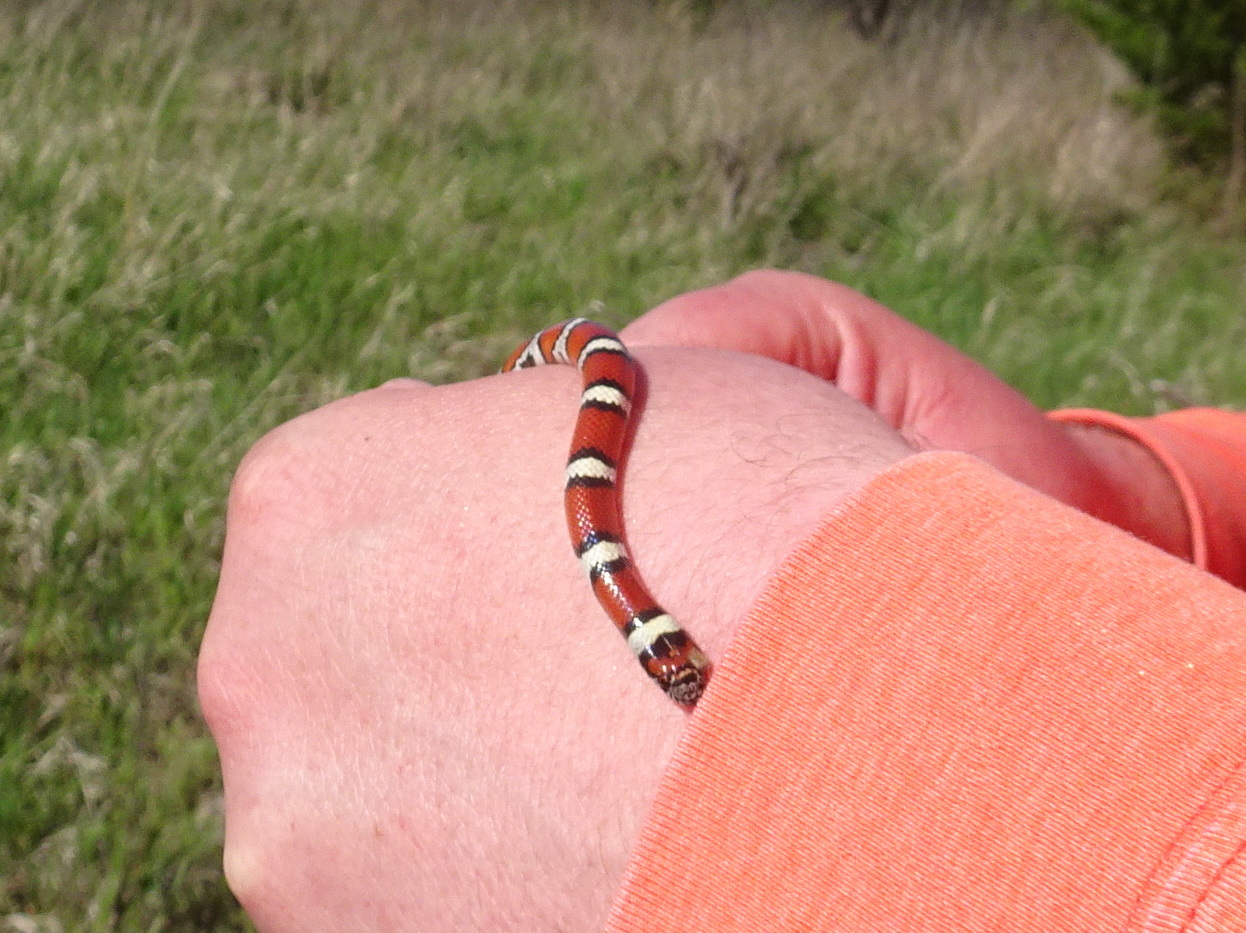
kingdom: Animalia
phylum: Chordata
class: Squamata
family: Colubridae
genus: Lampropeltis
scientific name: Lampropeltis gentilis
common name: Central plains milksnake
